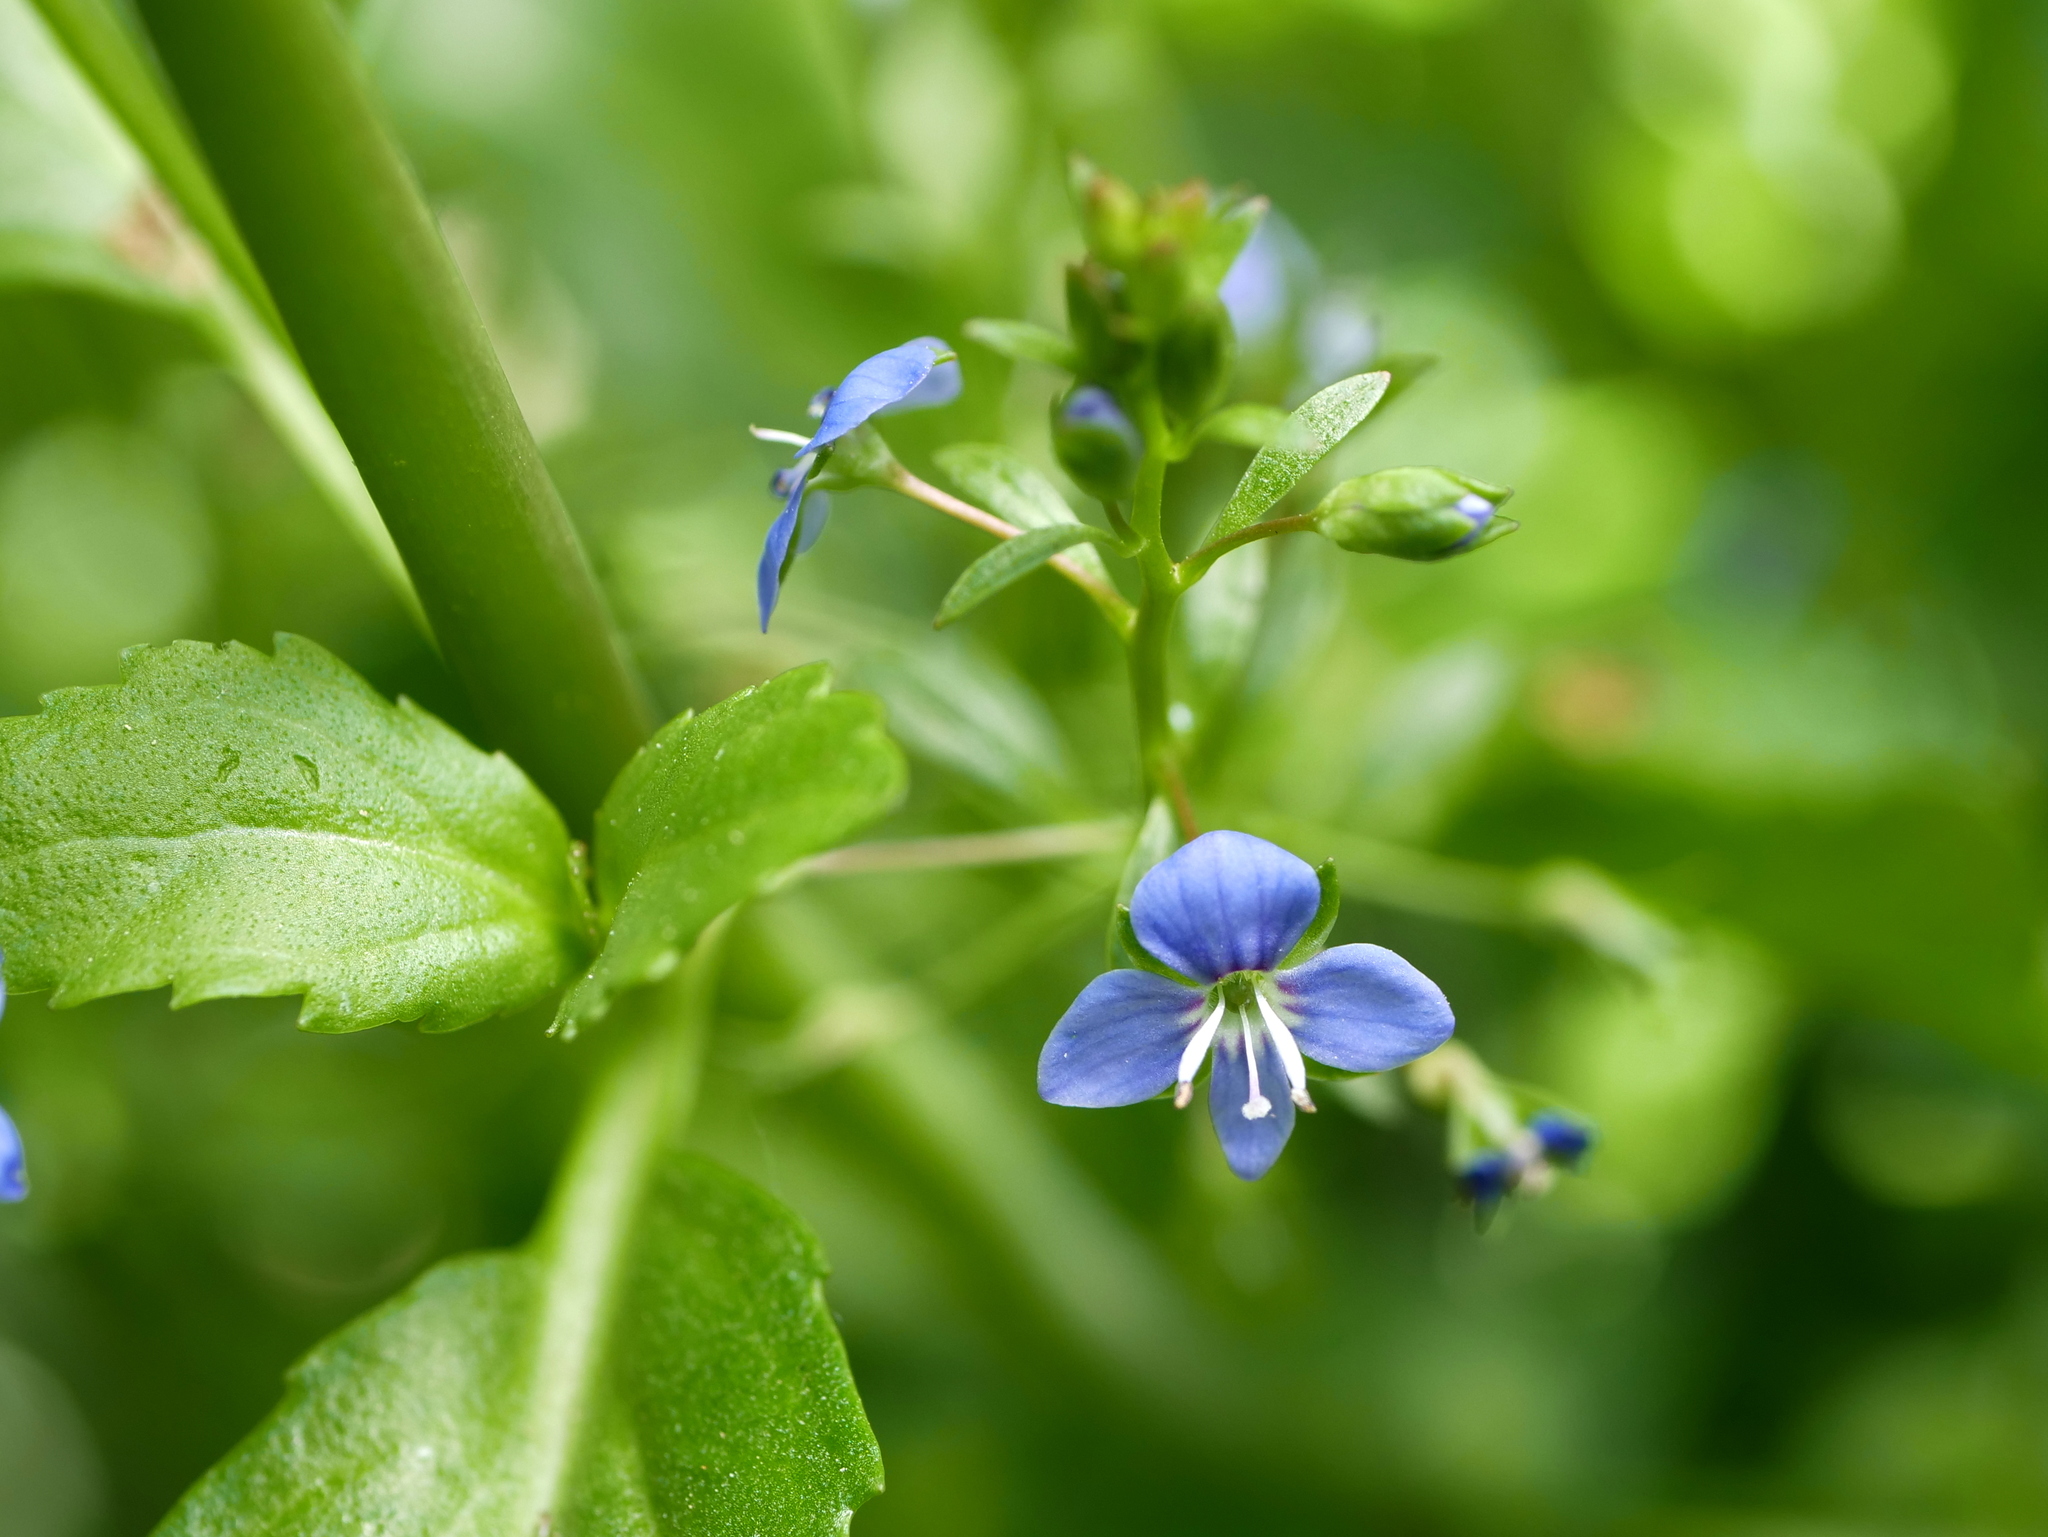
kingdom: Plantae
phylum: Tracheophyta
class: Magnoliopsida
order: Lamiales
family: Plantaginaceae
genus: Veronica
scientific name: Veronica beccabunga
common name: Brooklime
